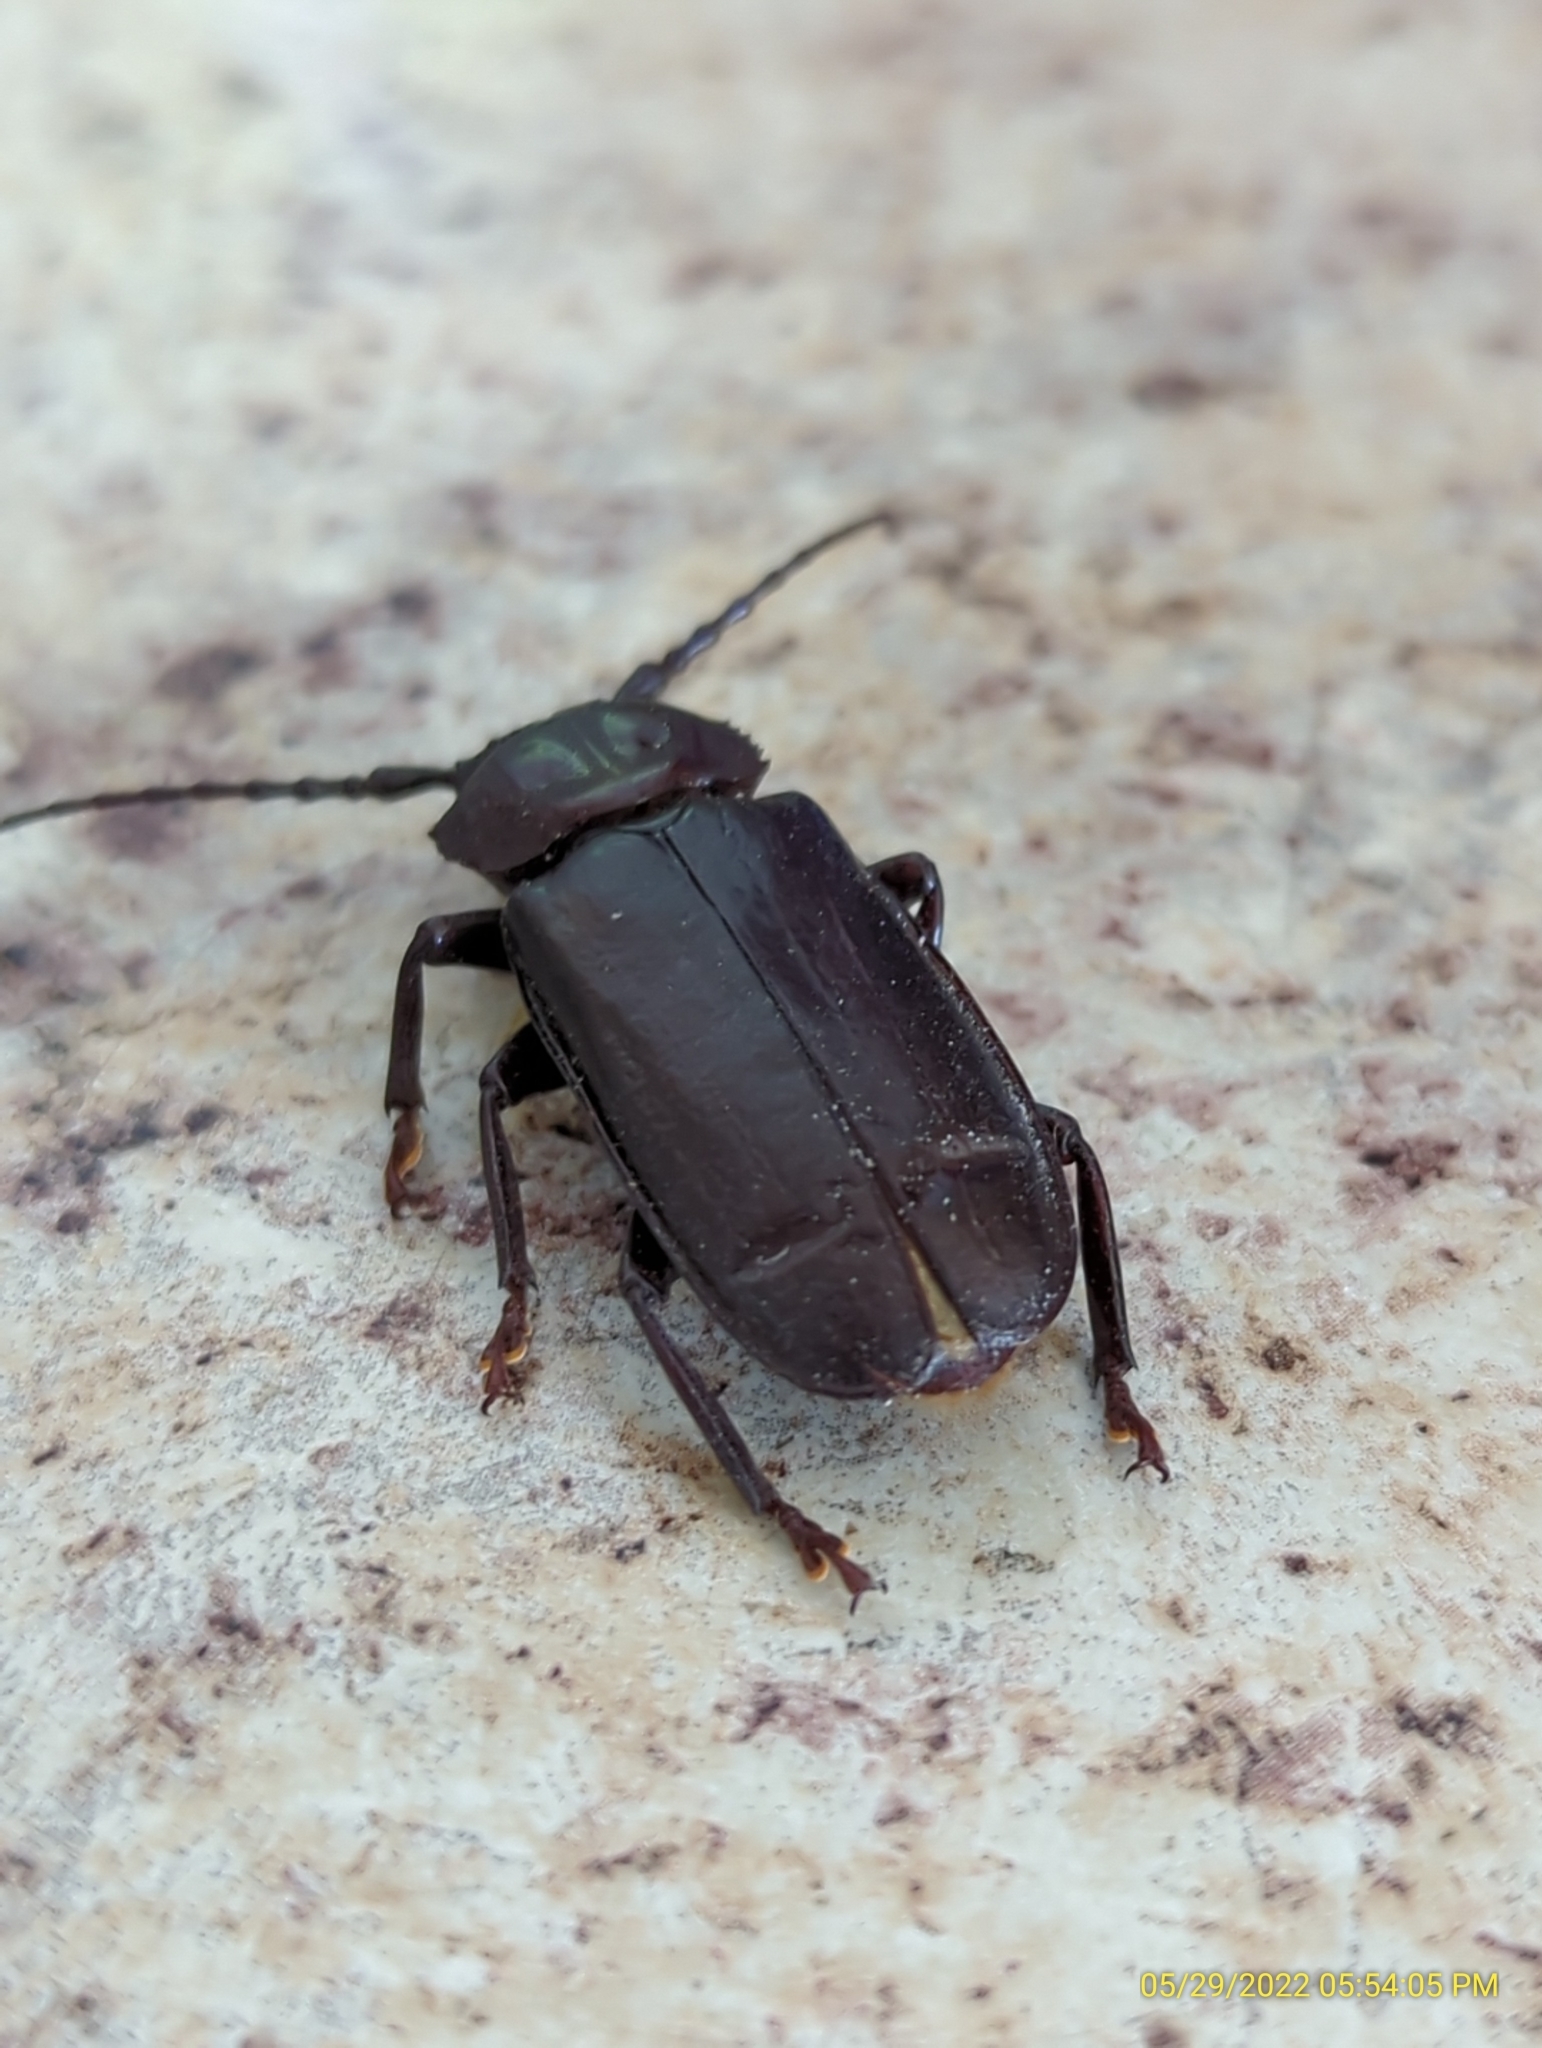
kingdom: Animalia
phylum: Arthropoda
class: Insecta
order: Coleoptera
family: Cerambycidae
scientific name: Cerambycidae
